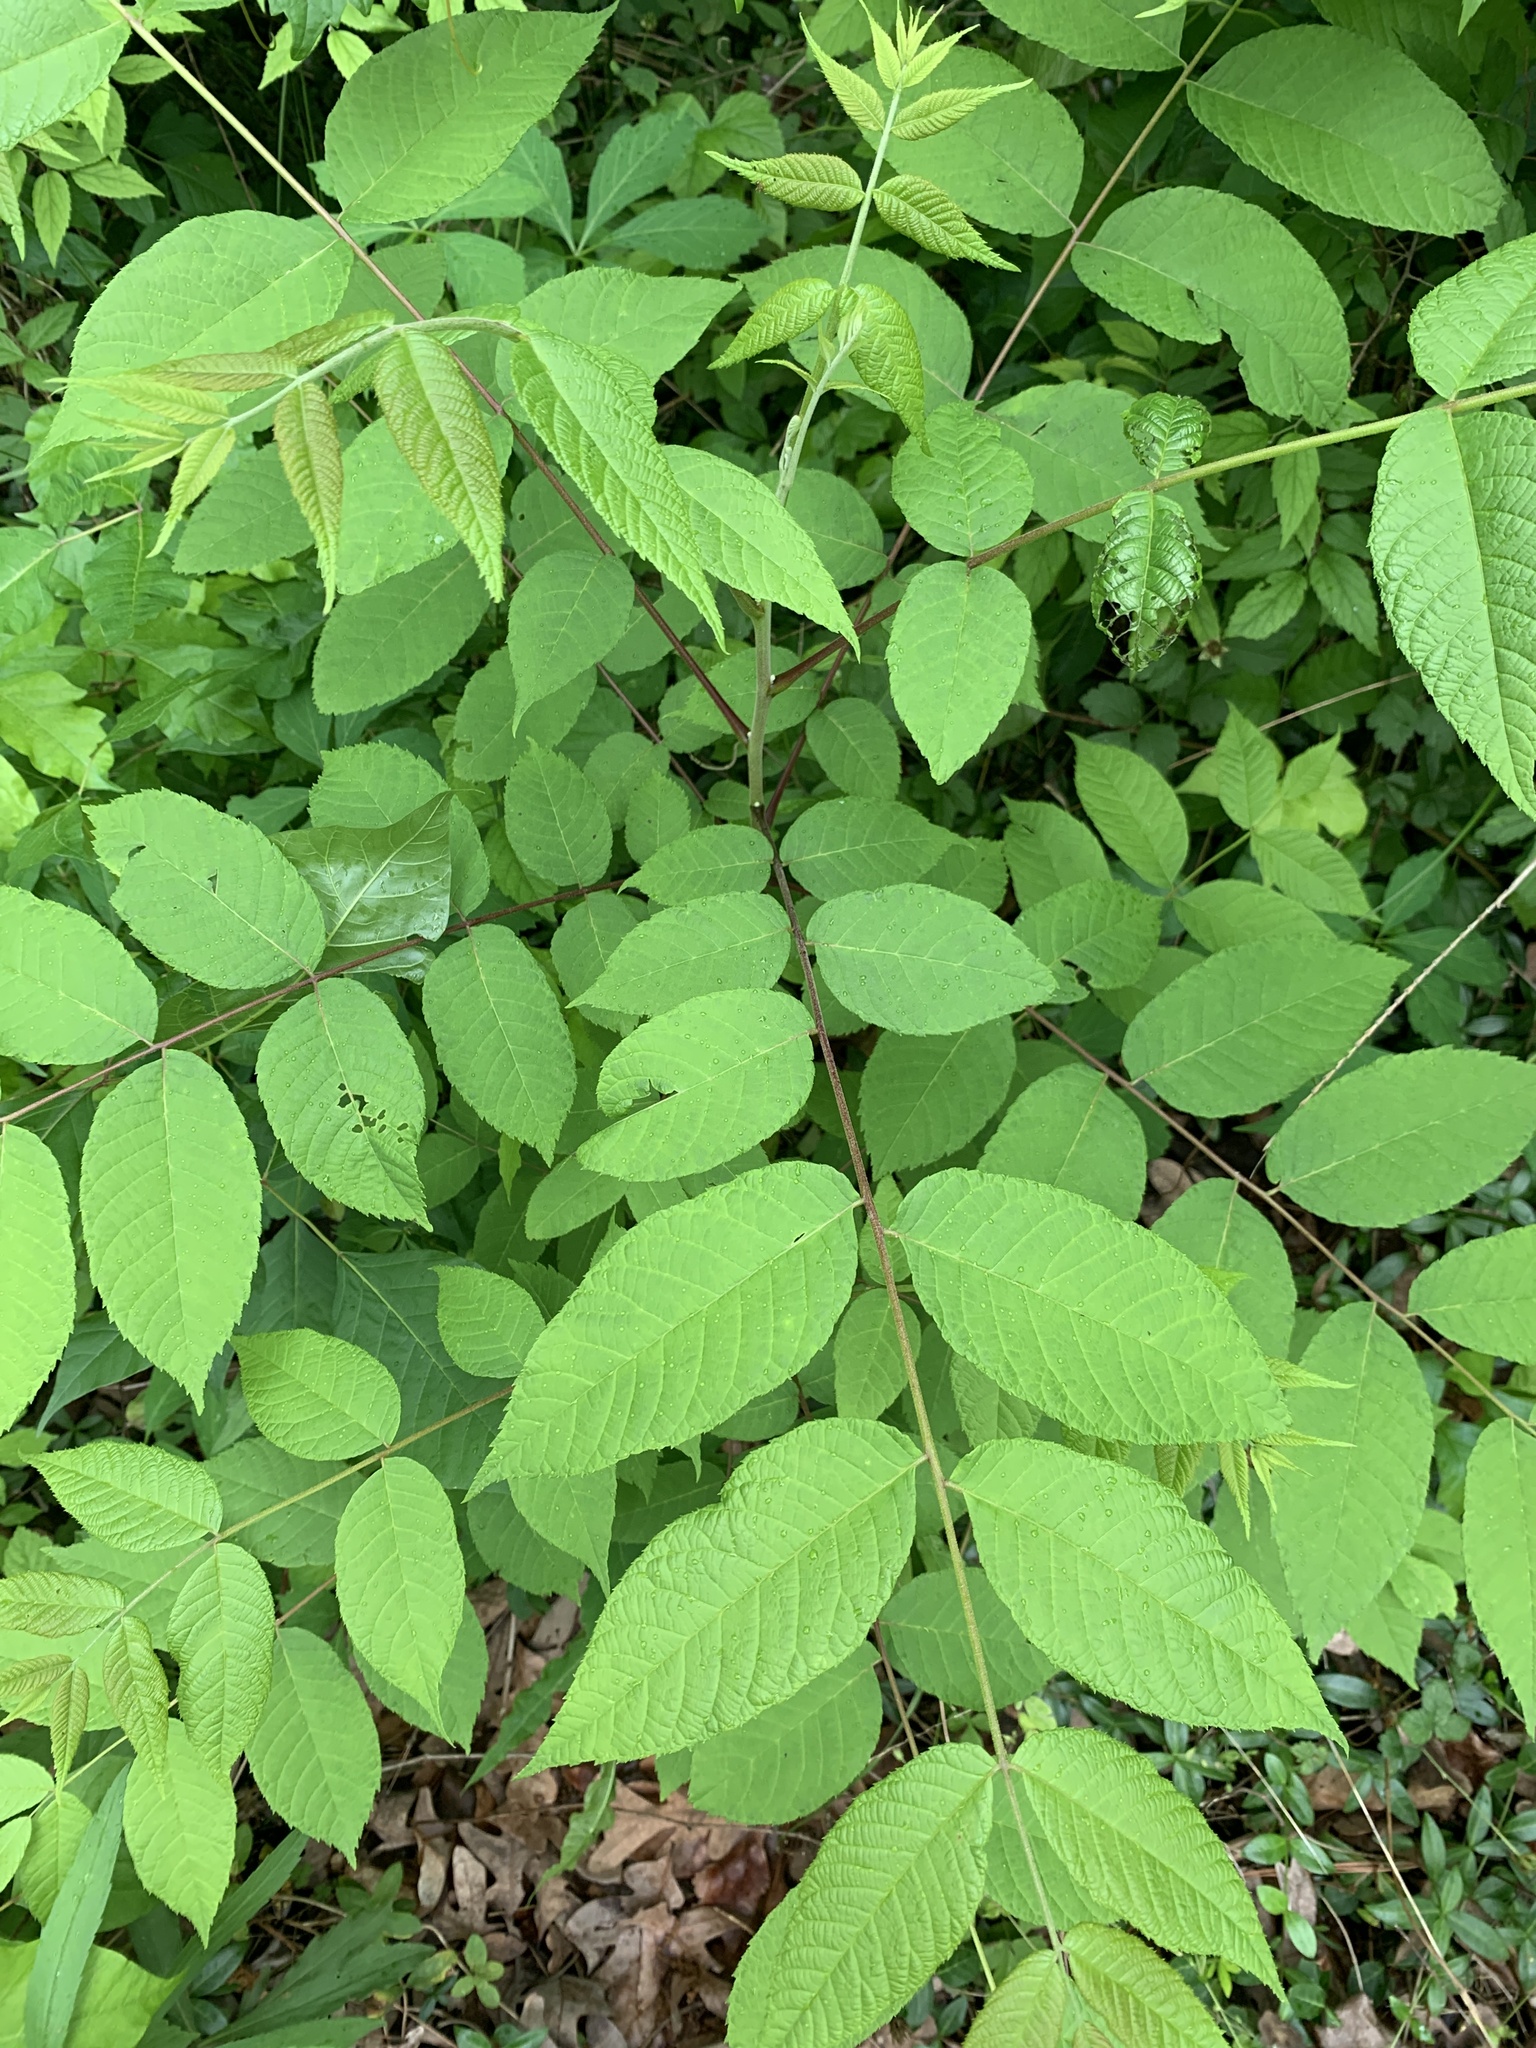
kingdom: Plantae
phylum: Tracheophyta
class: Magnoliopsida
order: Fagales
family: Juglandaceae
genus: Juglans
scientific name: Juglans nigra
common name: Black walnut
